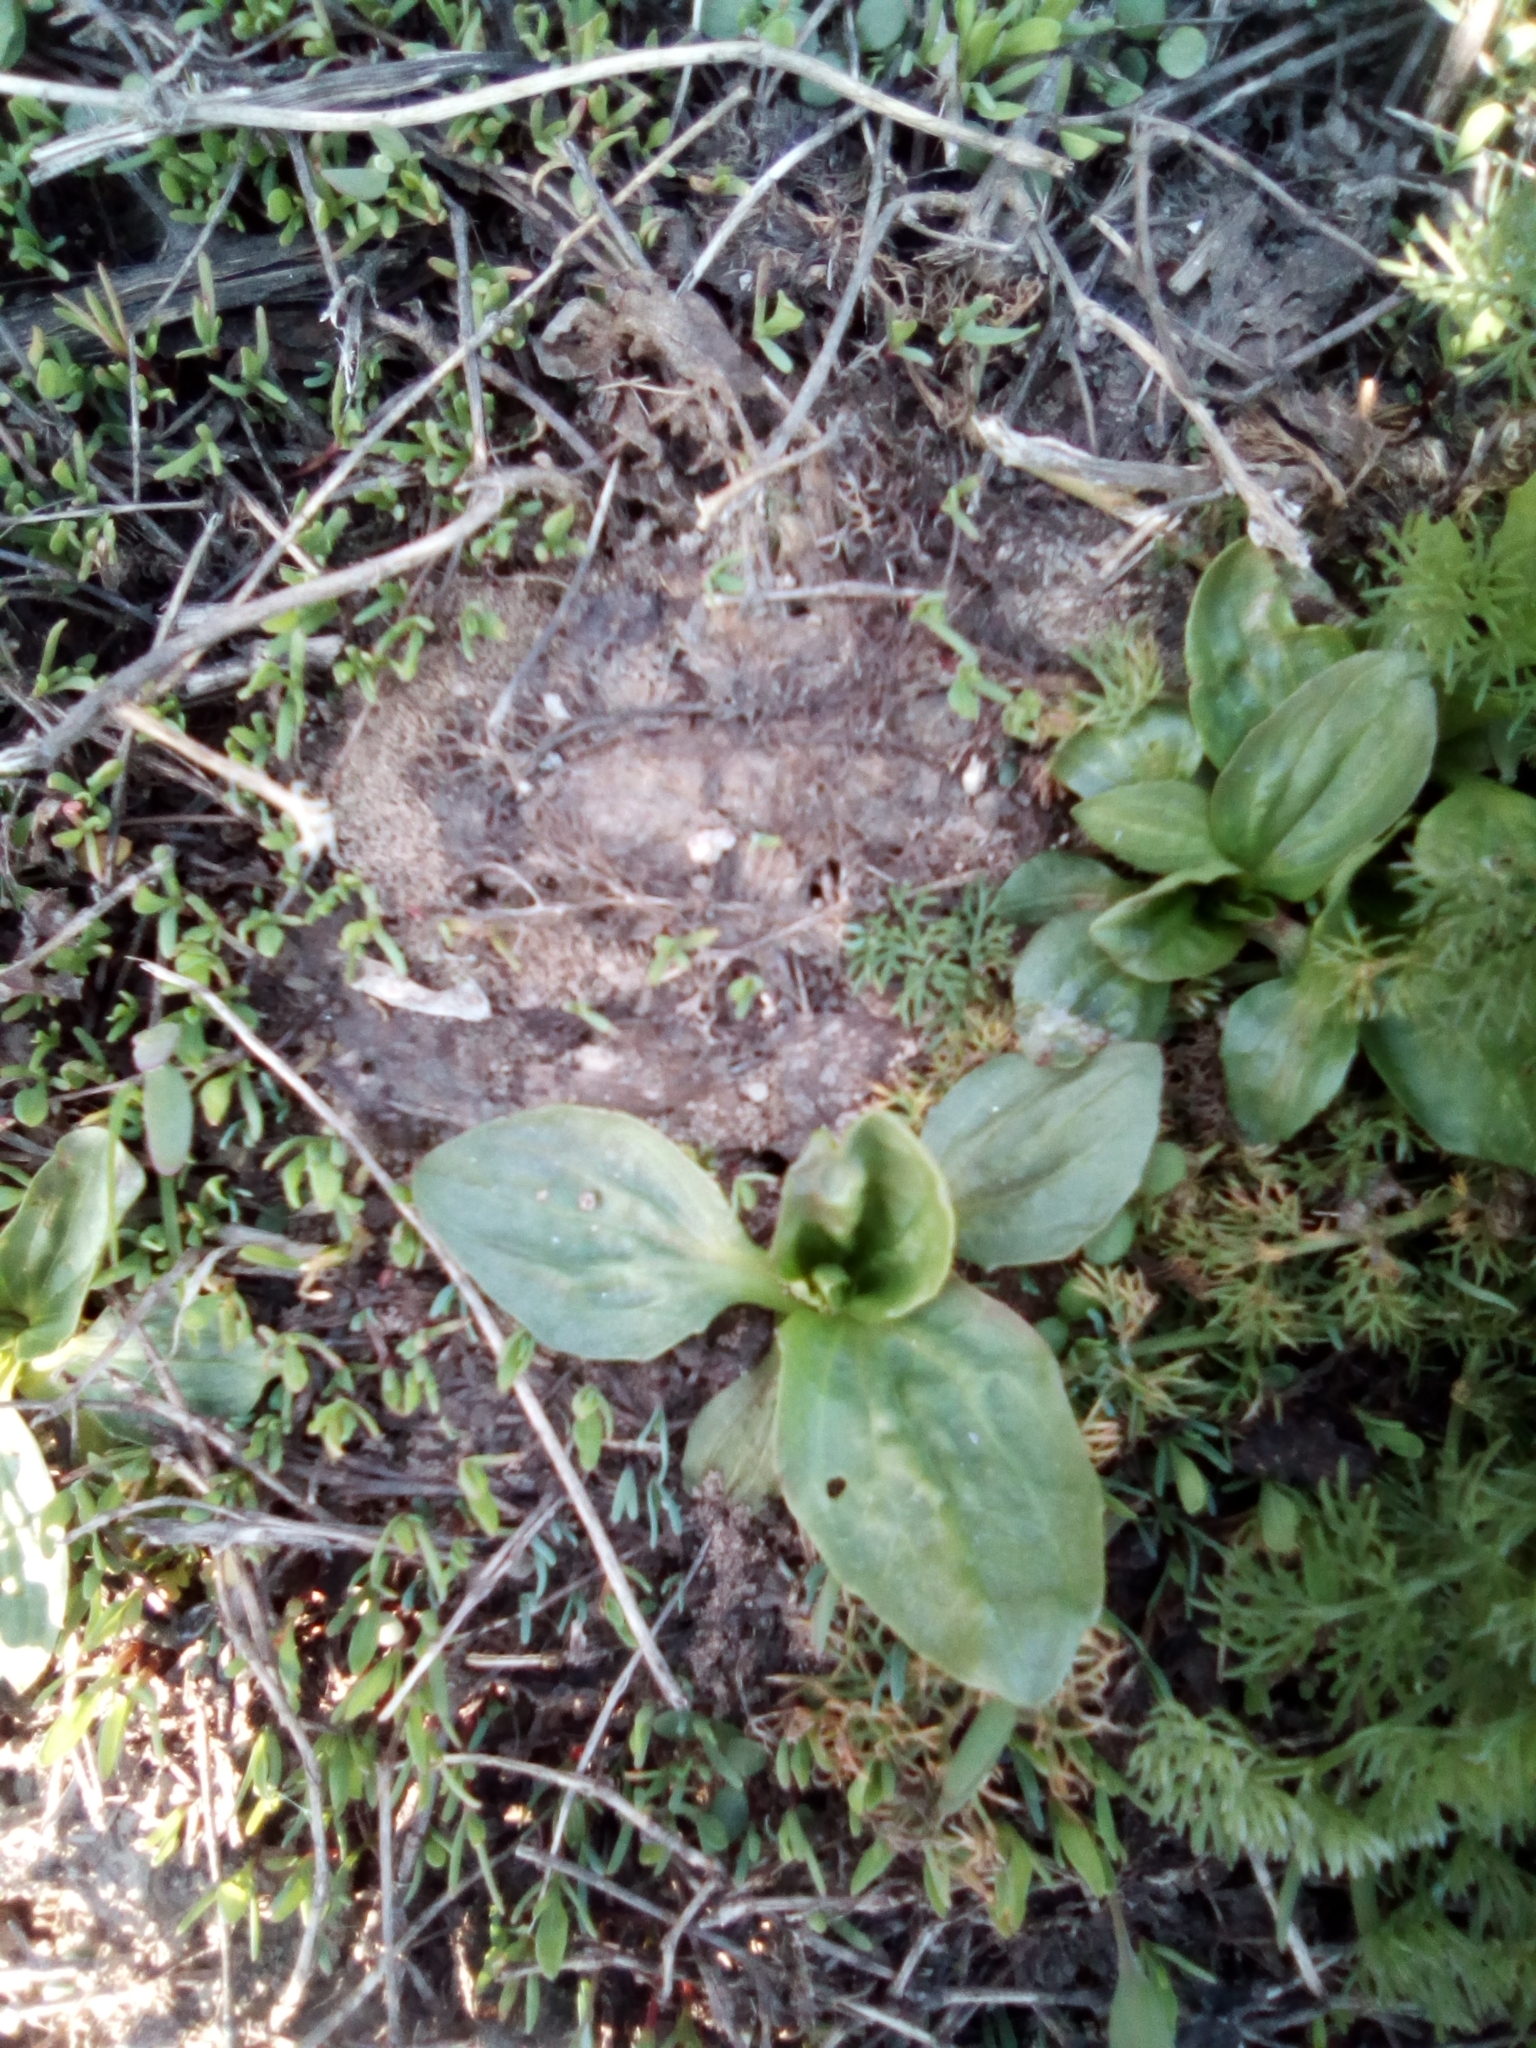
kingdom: Plantae
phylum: Tracheophyta
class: Magnoliopsida
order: Lamiales
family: Plantaginaceae
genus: Plantago
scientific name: Plantago major
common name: Common plantain
